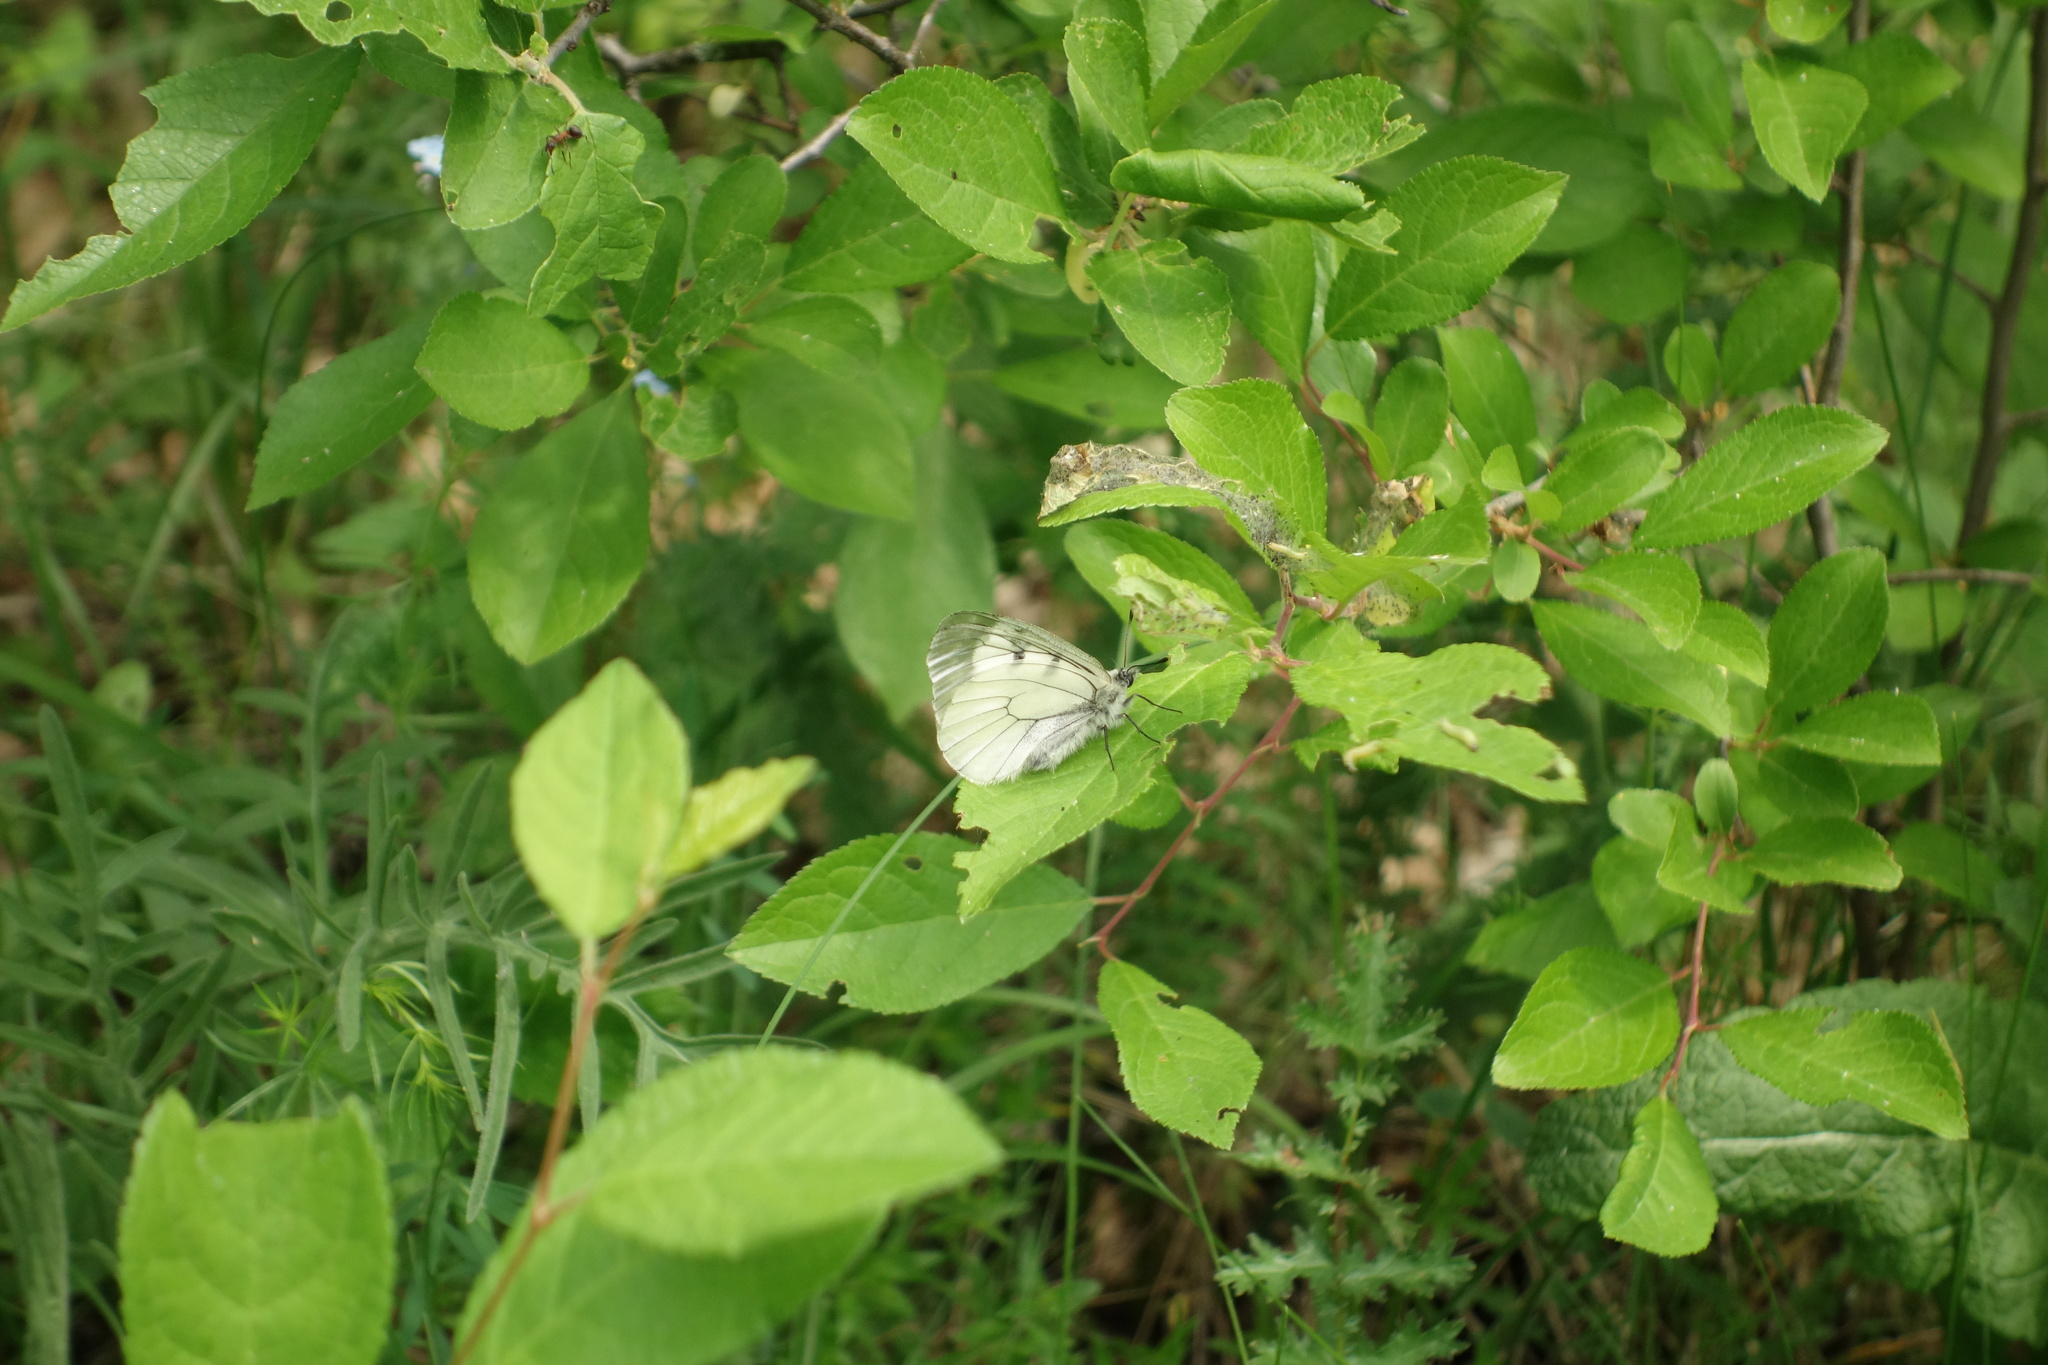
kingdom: Animalia
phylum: Arthropoda
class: Insecta
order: Lepidoptera
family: Papilionidae
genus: Parnassius
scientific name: Parnassius mnemosyne
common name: Clouded apollo
